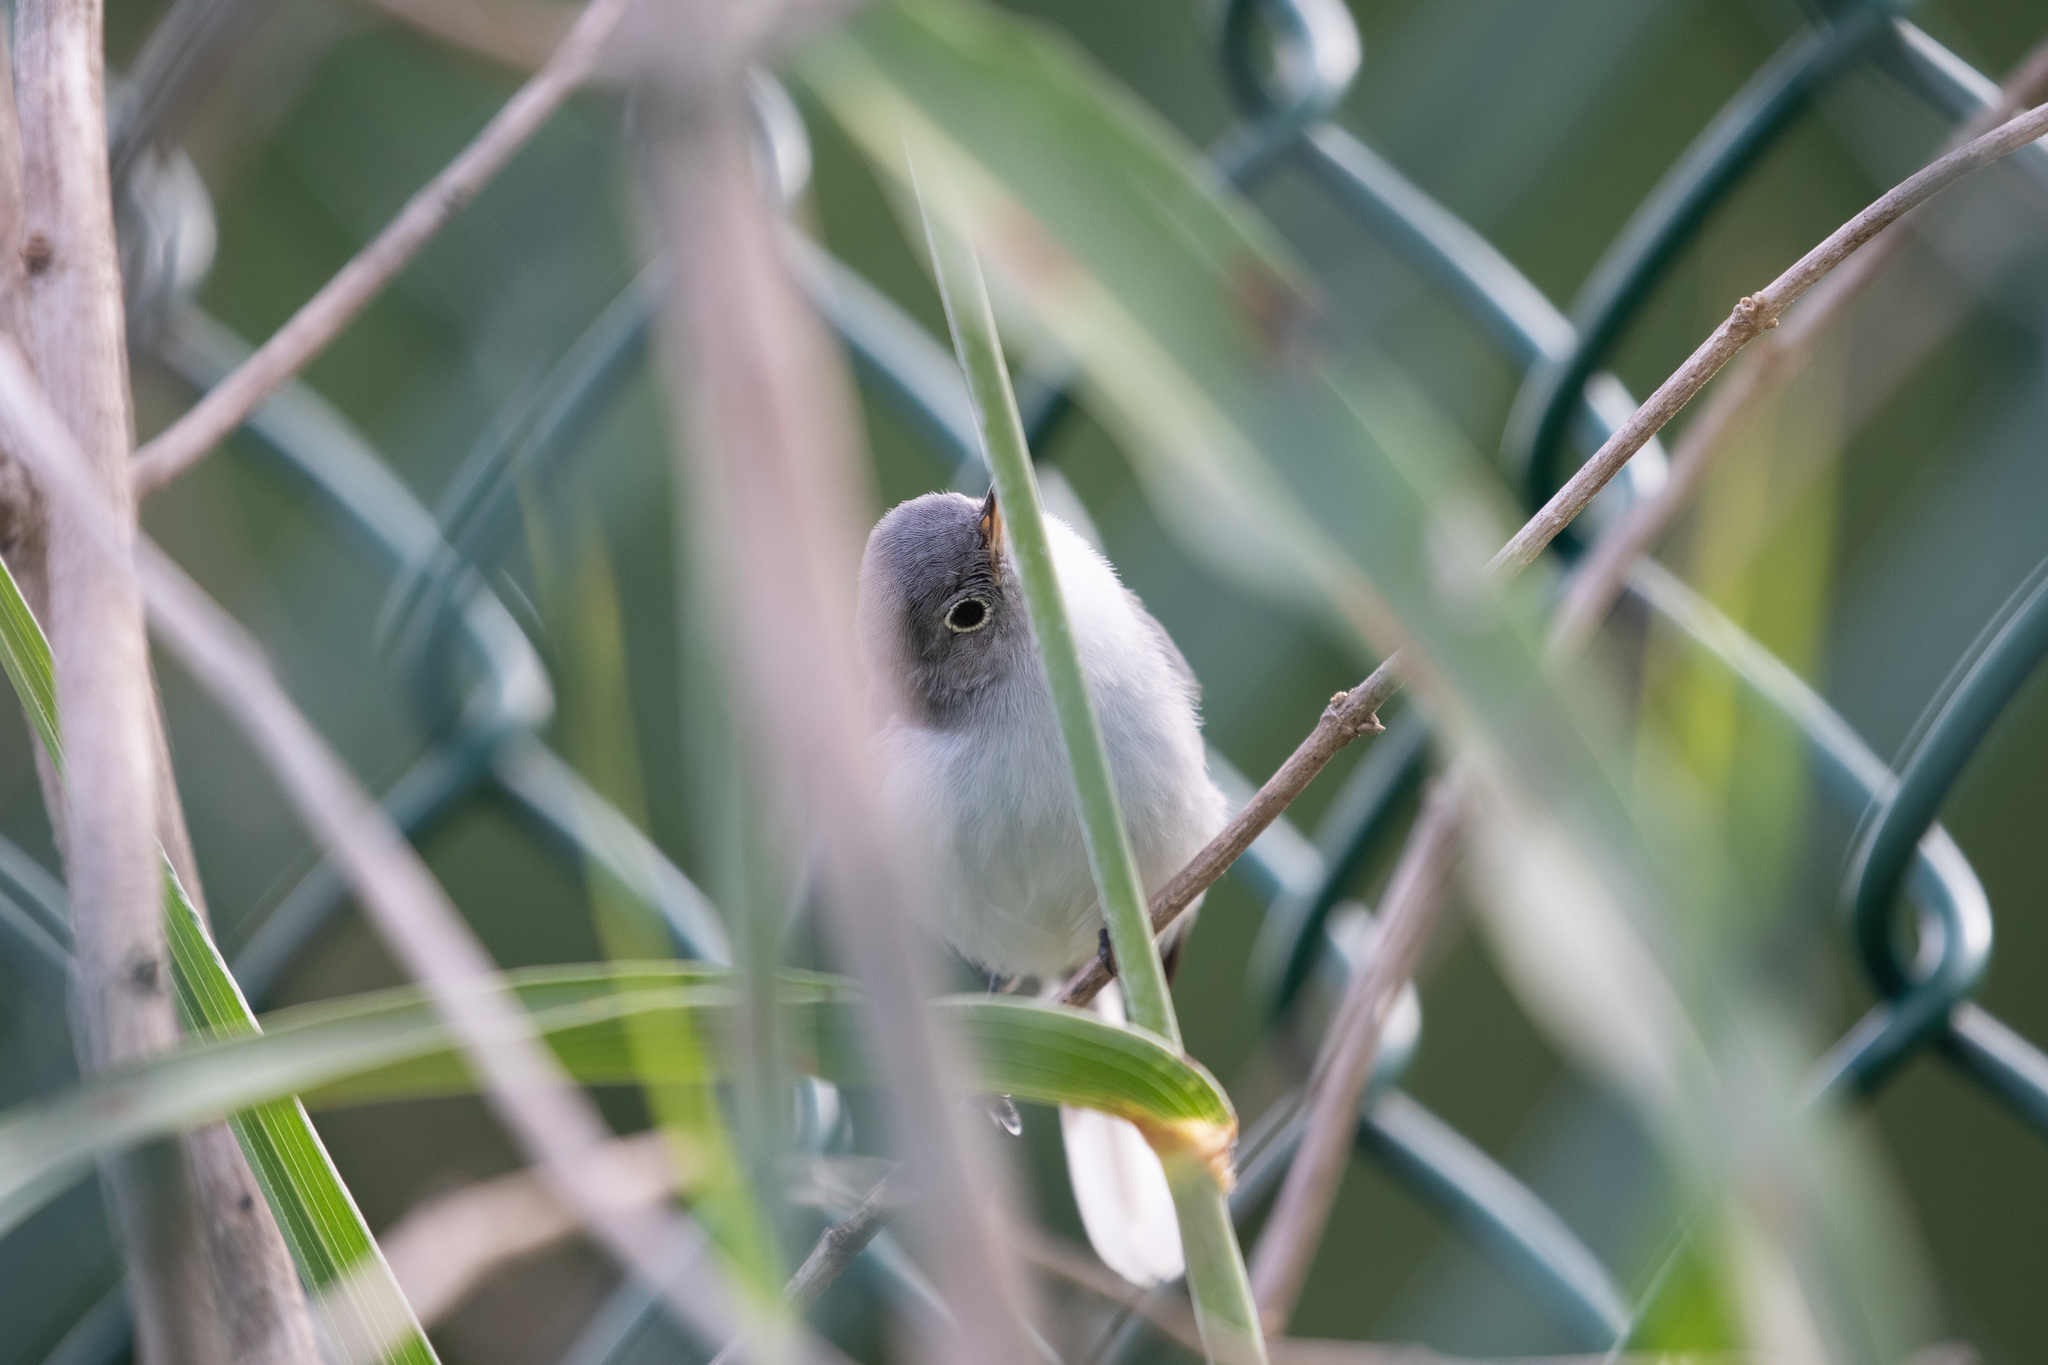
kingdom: Animalia
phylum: Chordata
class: Aves
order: Passeriformes
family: Polioptilidae
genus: Polioptila
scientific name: Polioptila caerulea
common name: Blue-gray gnatcatcher
